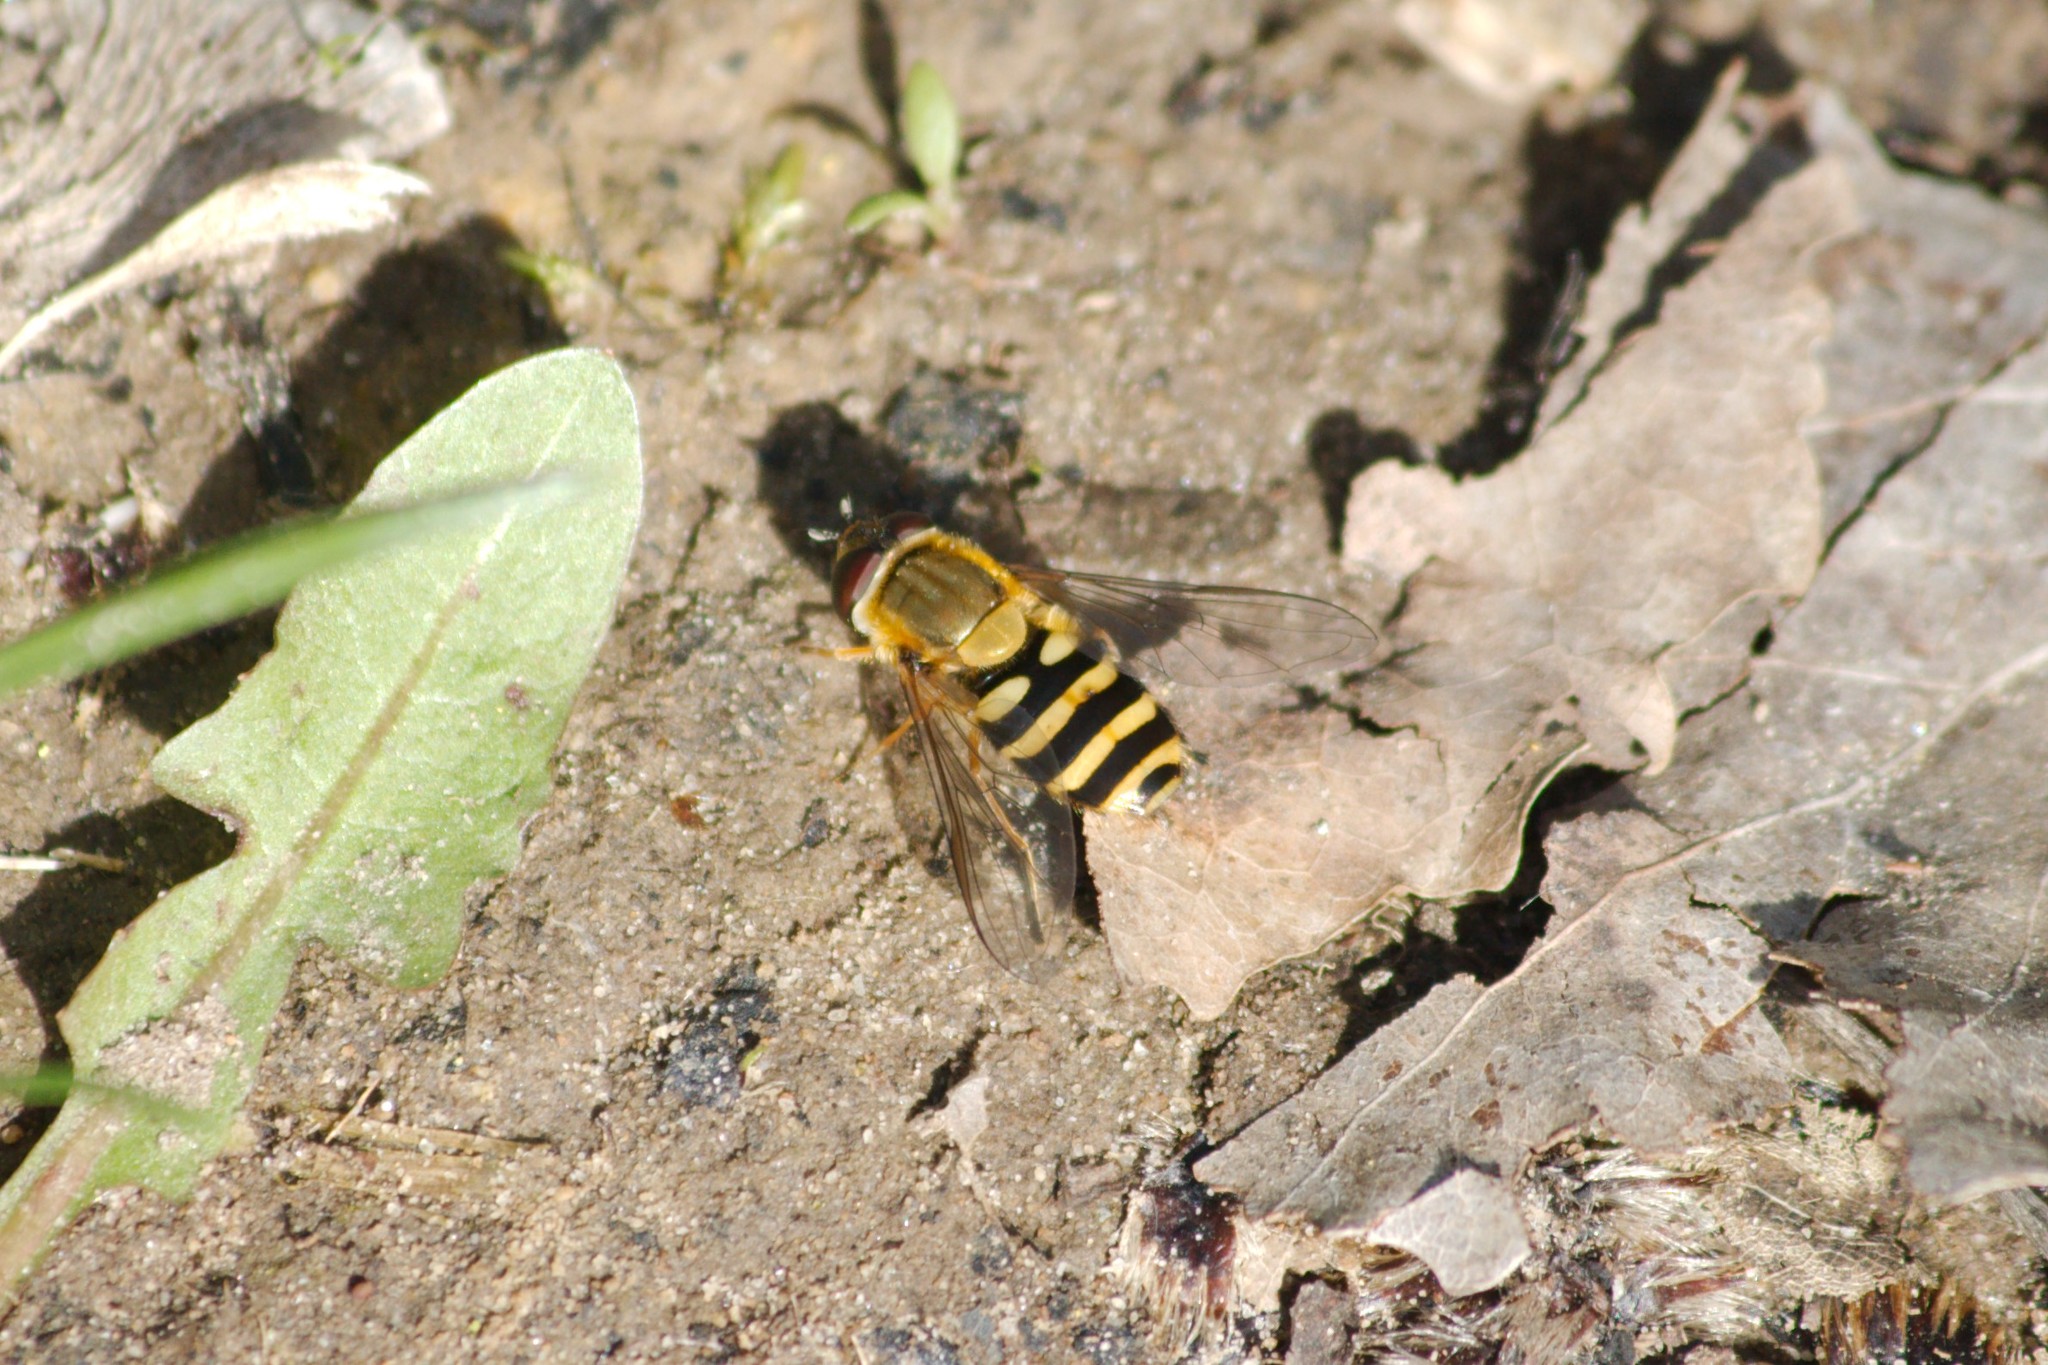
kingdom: Animalia
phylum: Arthropoda
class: Insecta
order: Diptera
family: Syrphidae
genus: Syrphus
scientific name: Syrphus ribesii
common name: Common flower fly
